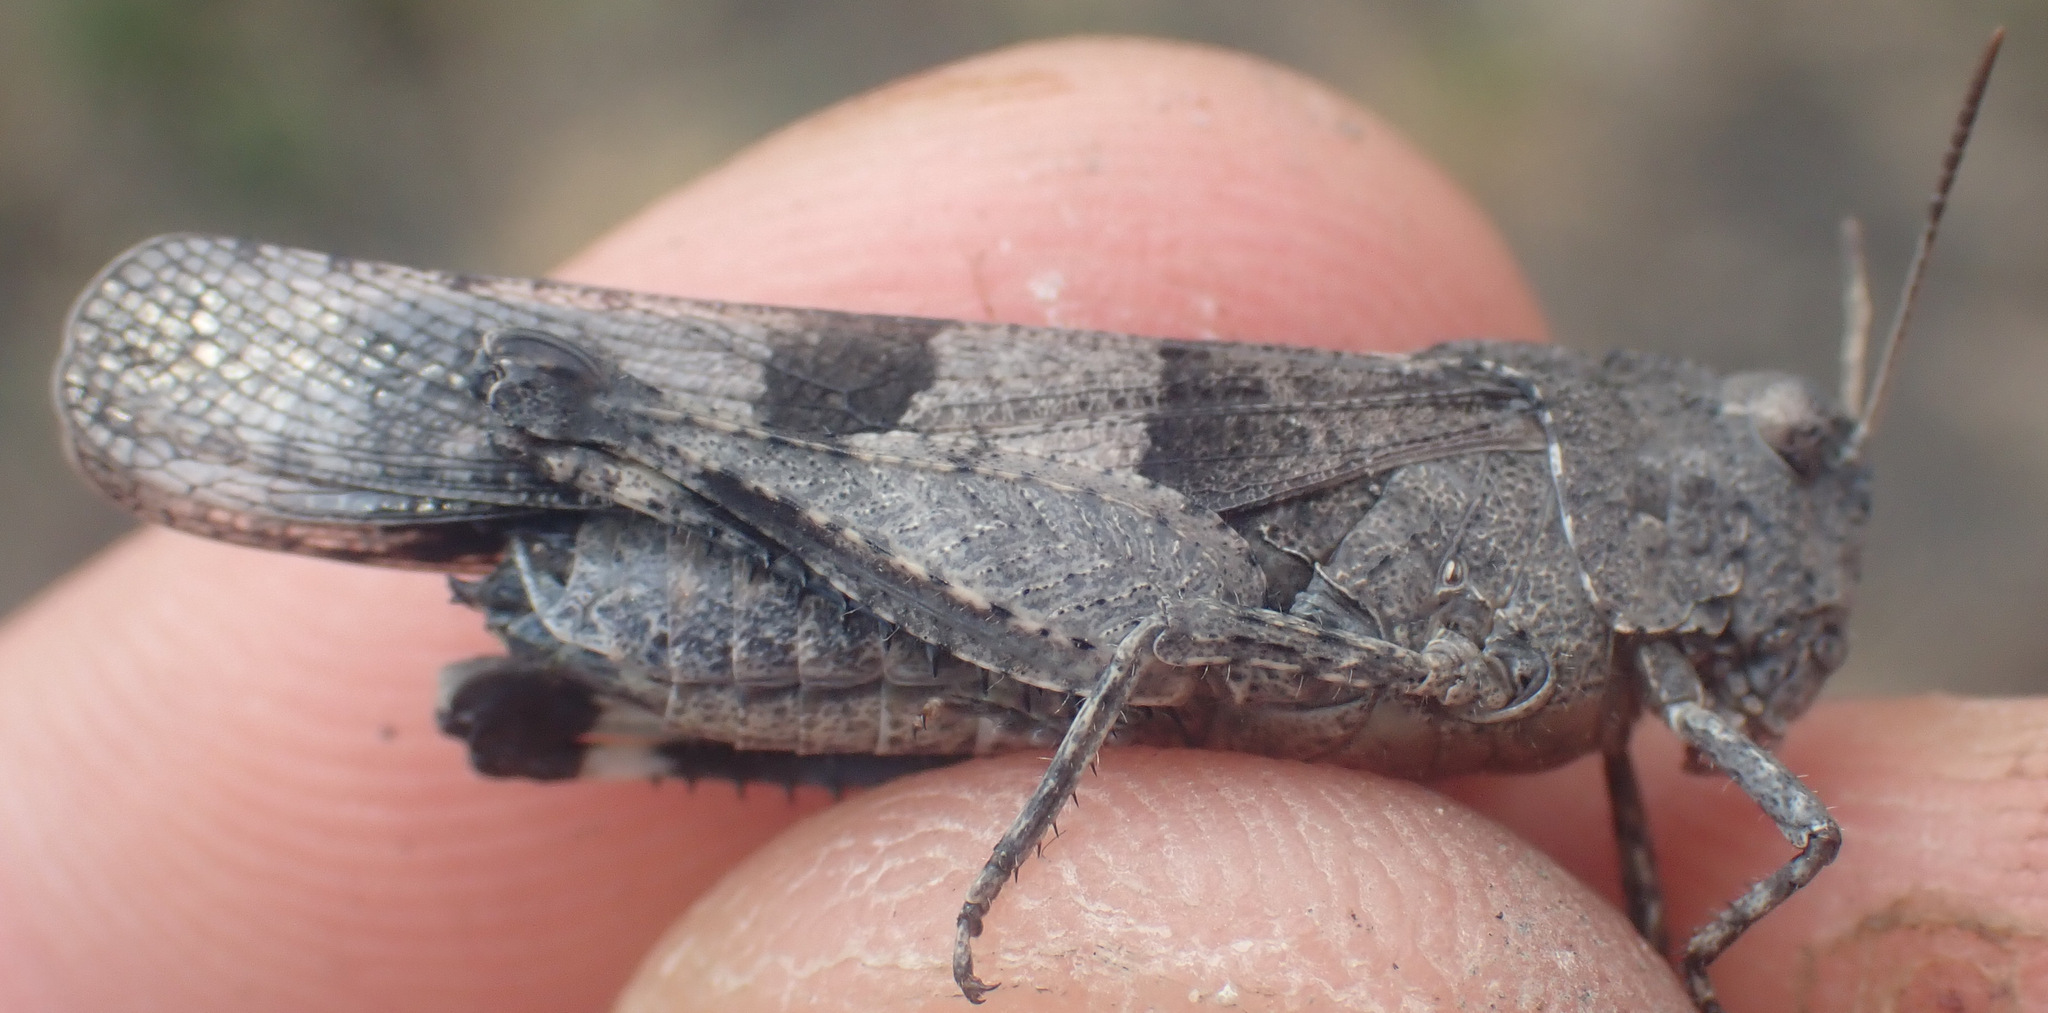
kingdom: Animalia
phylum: Arthropoda
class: Insecta
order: Orthoptera
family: Acrididae
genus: Oedipoda
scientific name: Oedipoda caerulescens
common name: Blue-winged grasshopper
